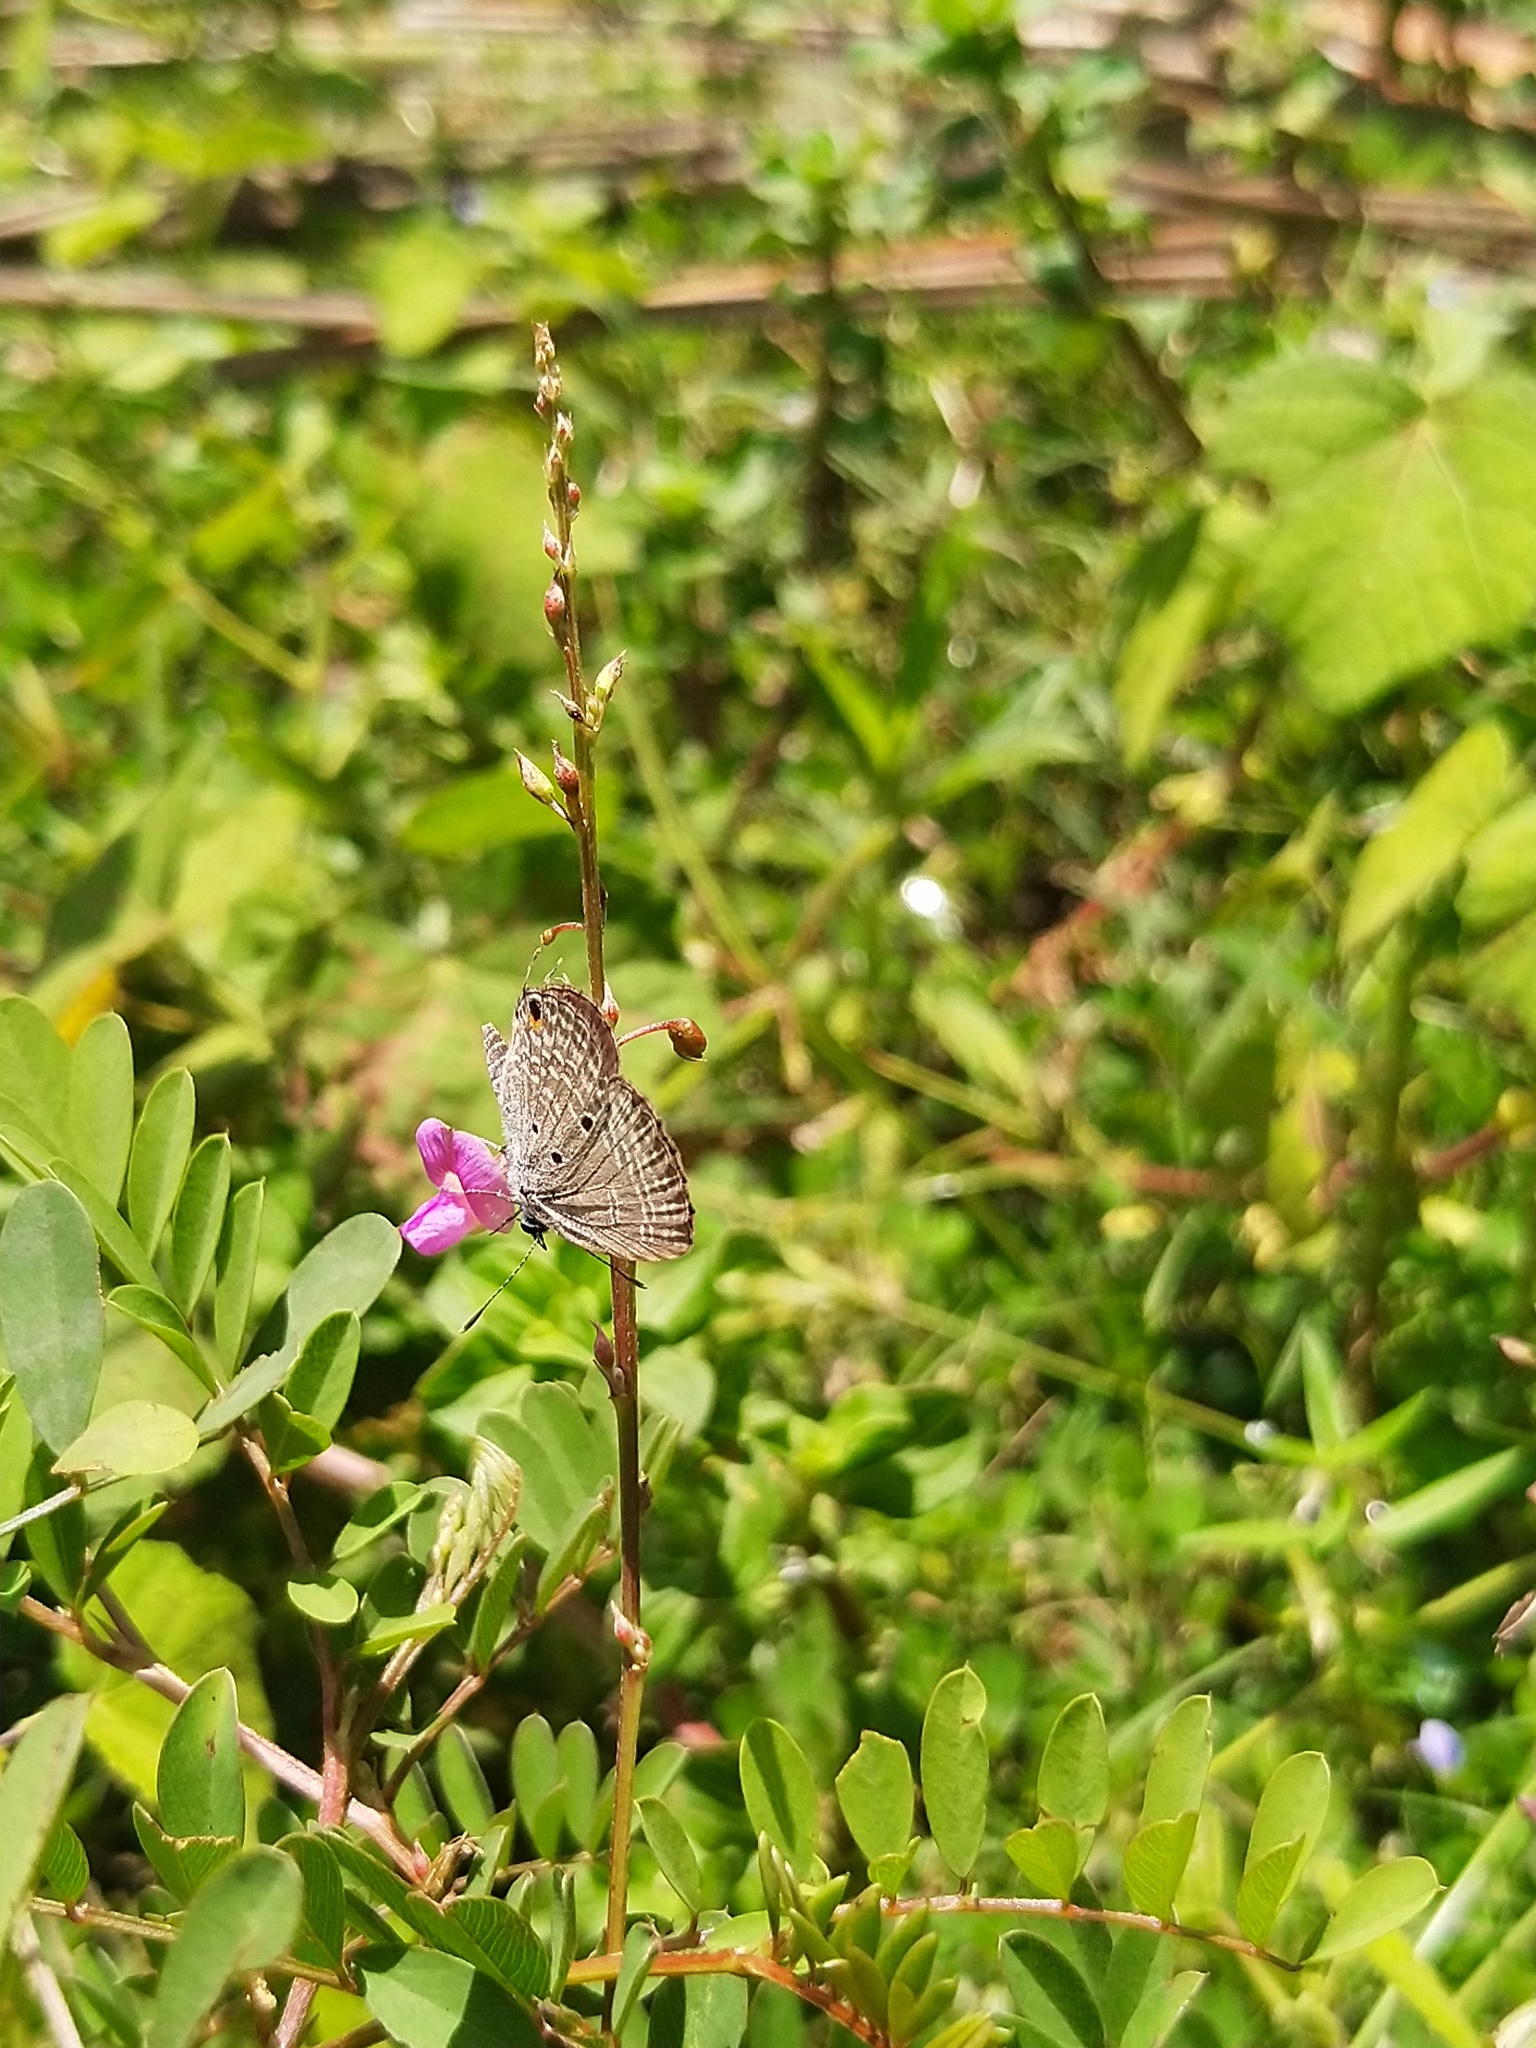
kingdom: Animalia
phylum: Arthropoda
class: Insecta
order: Lepidoptera
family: Lycaenidae
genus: Luthrodes
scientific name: Luthrodes pandava
